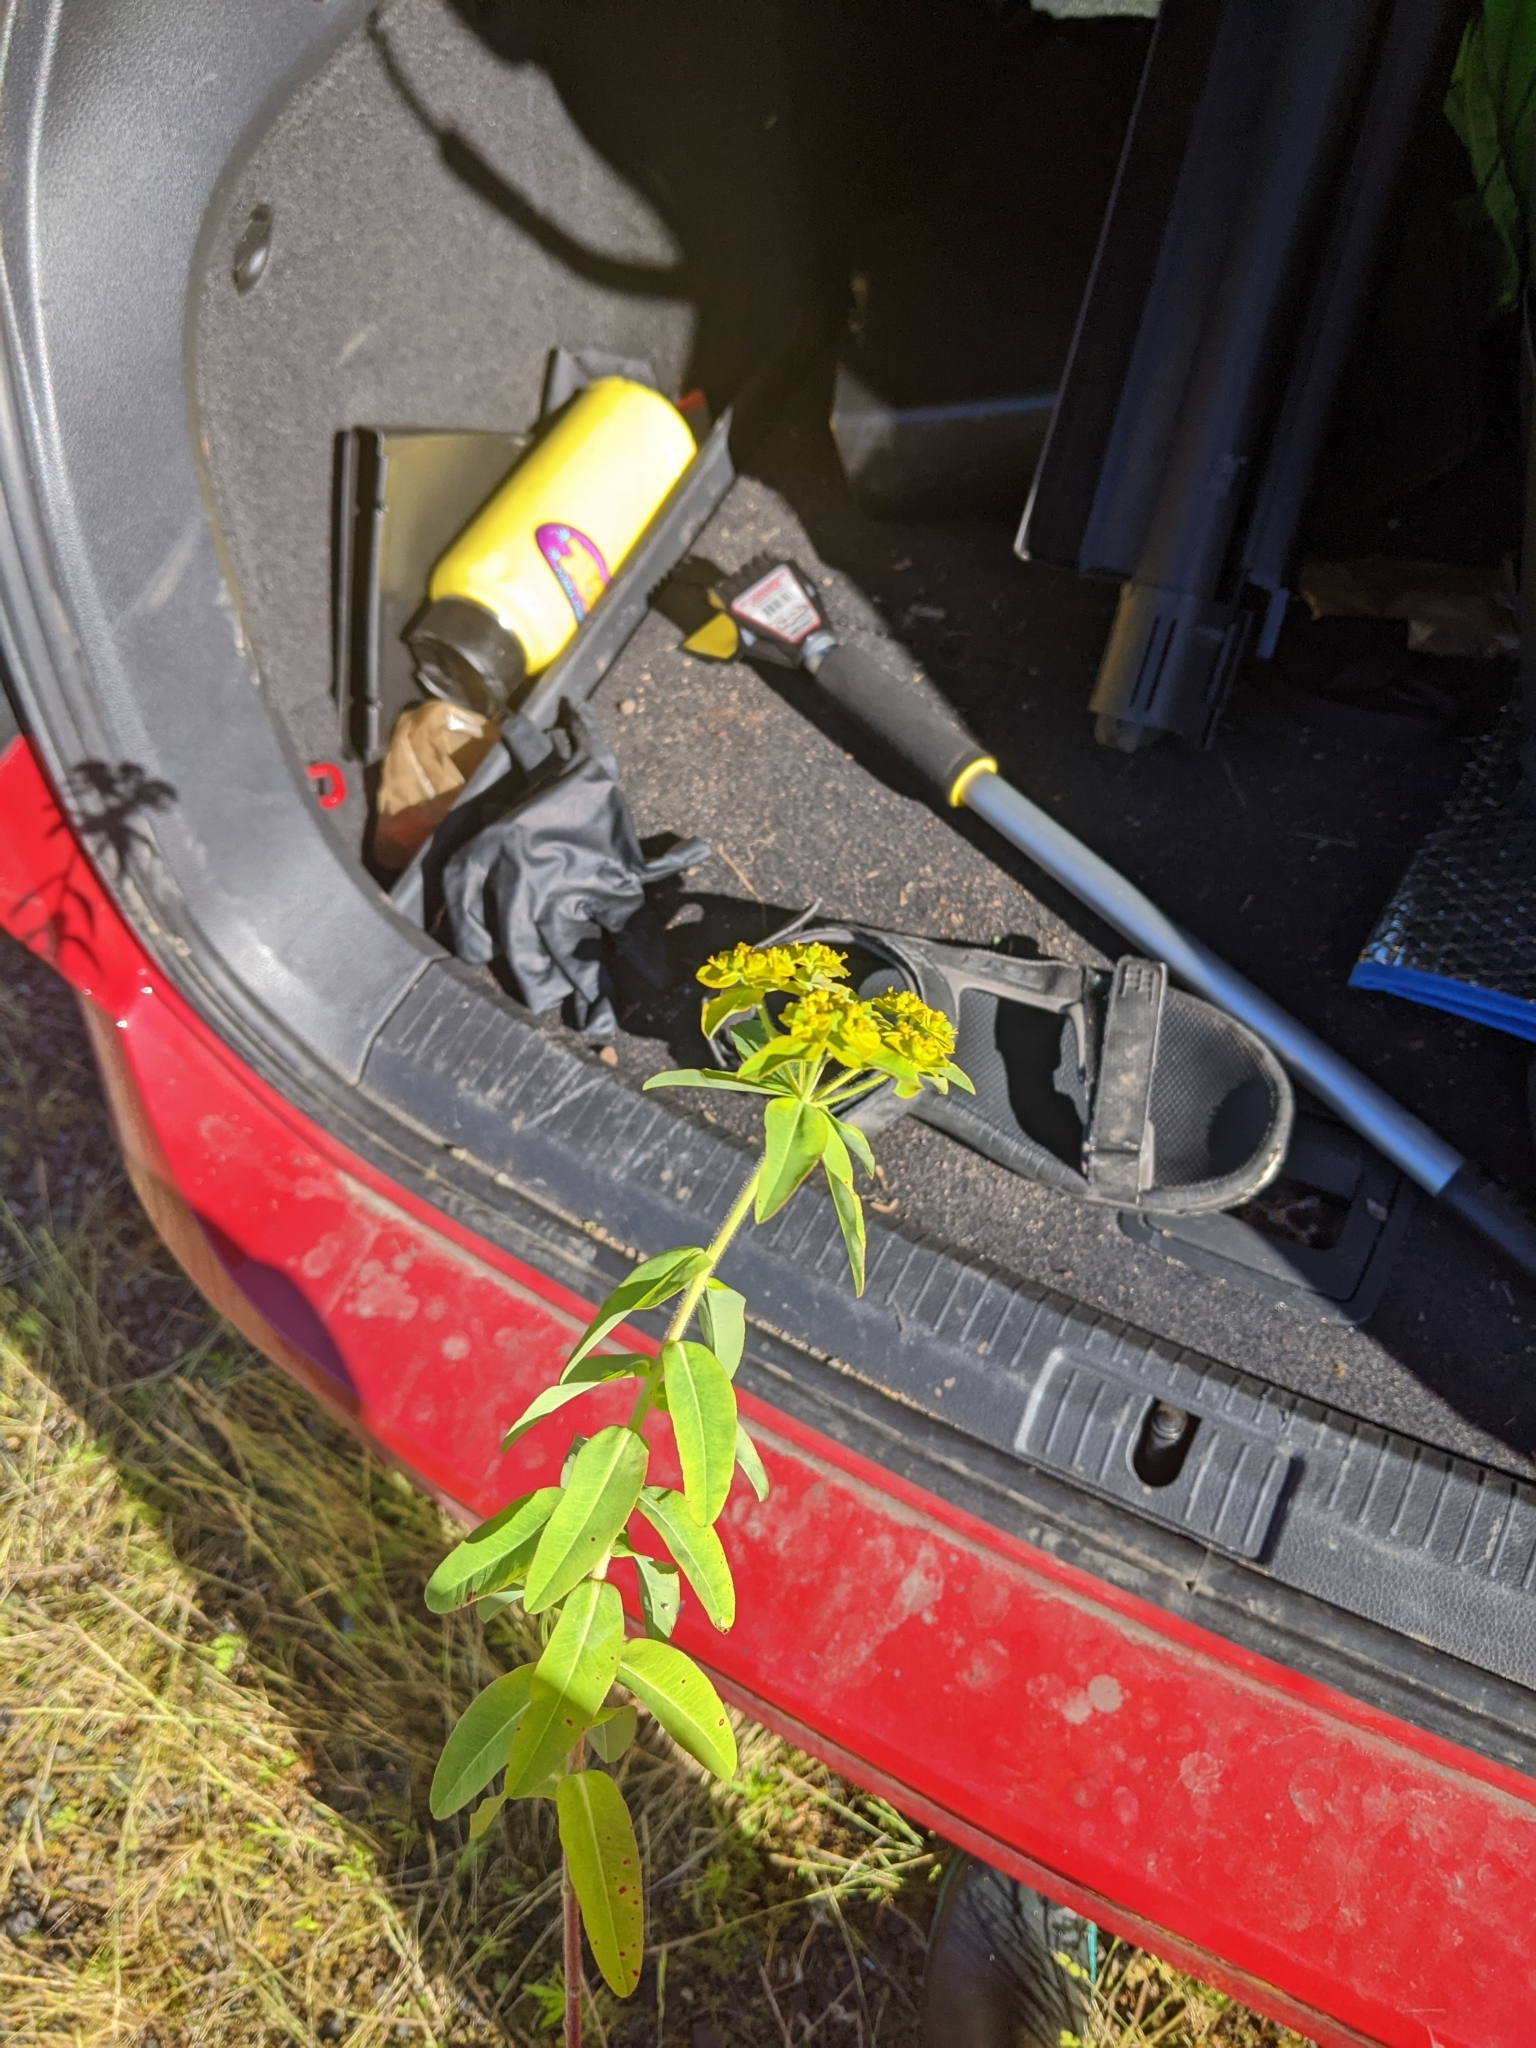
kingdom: Plantae
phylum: Tracheophyta
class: Magnoliopsida
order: Malpighiales
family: Euphorbiaceae
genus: Euphorbia
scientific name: Euphorbia oblongata
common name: Balkan spurge
